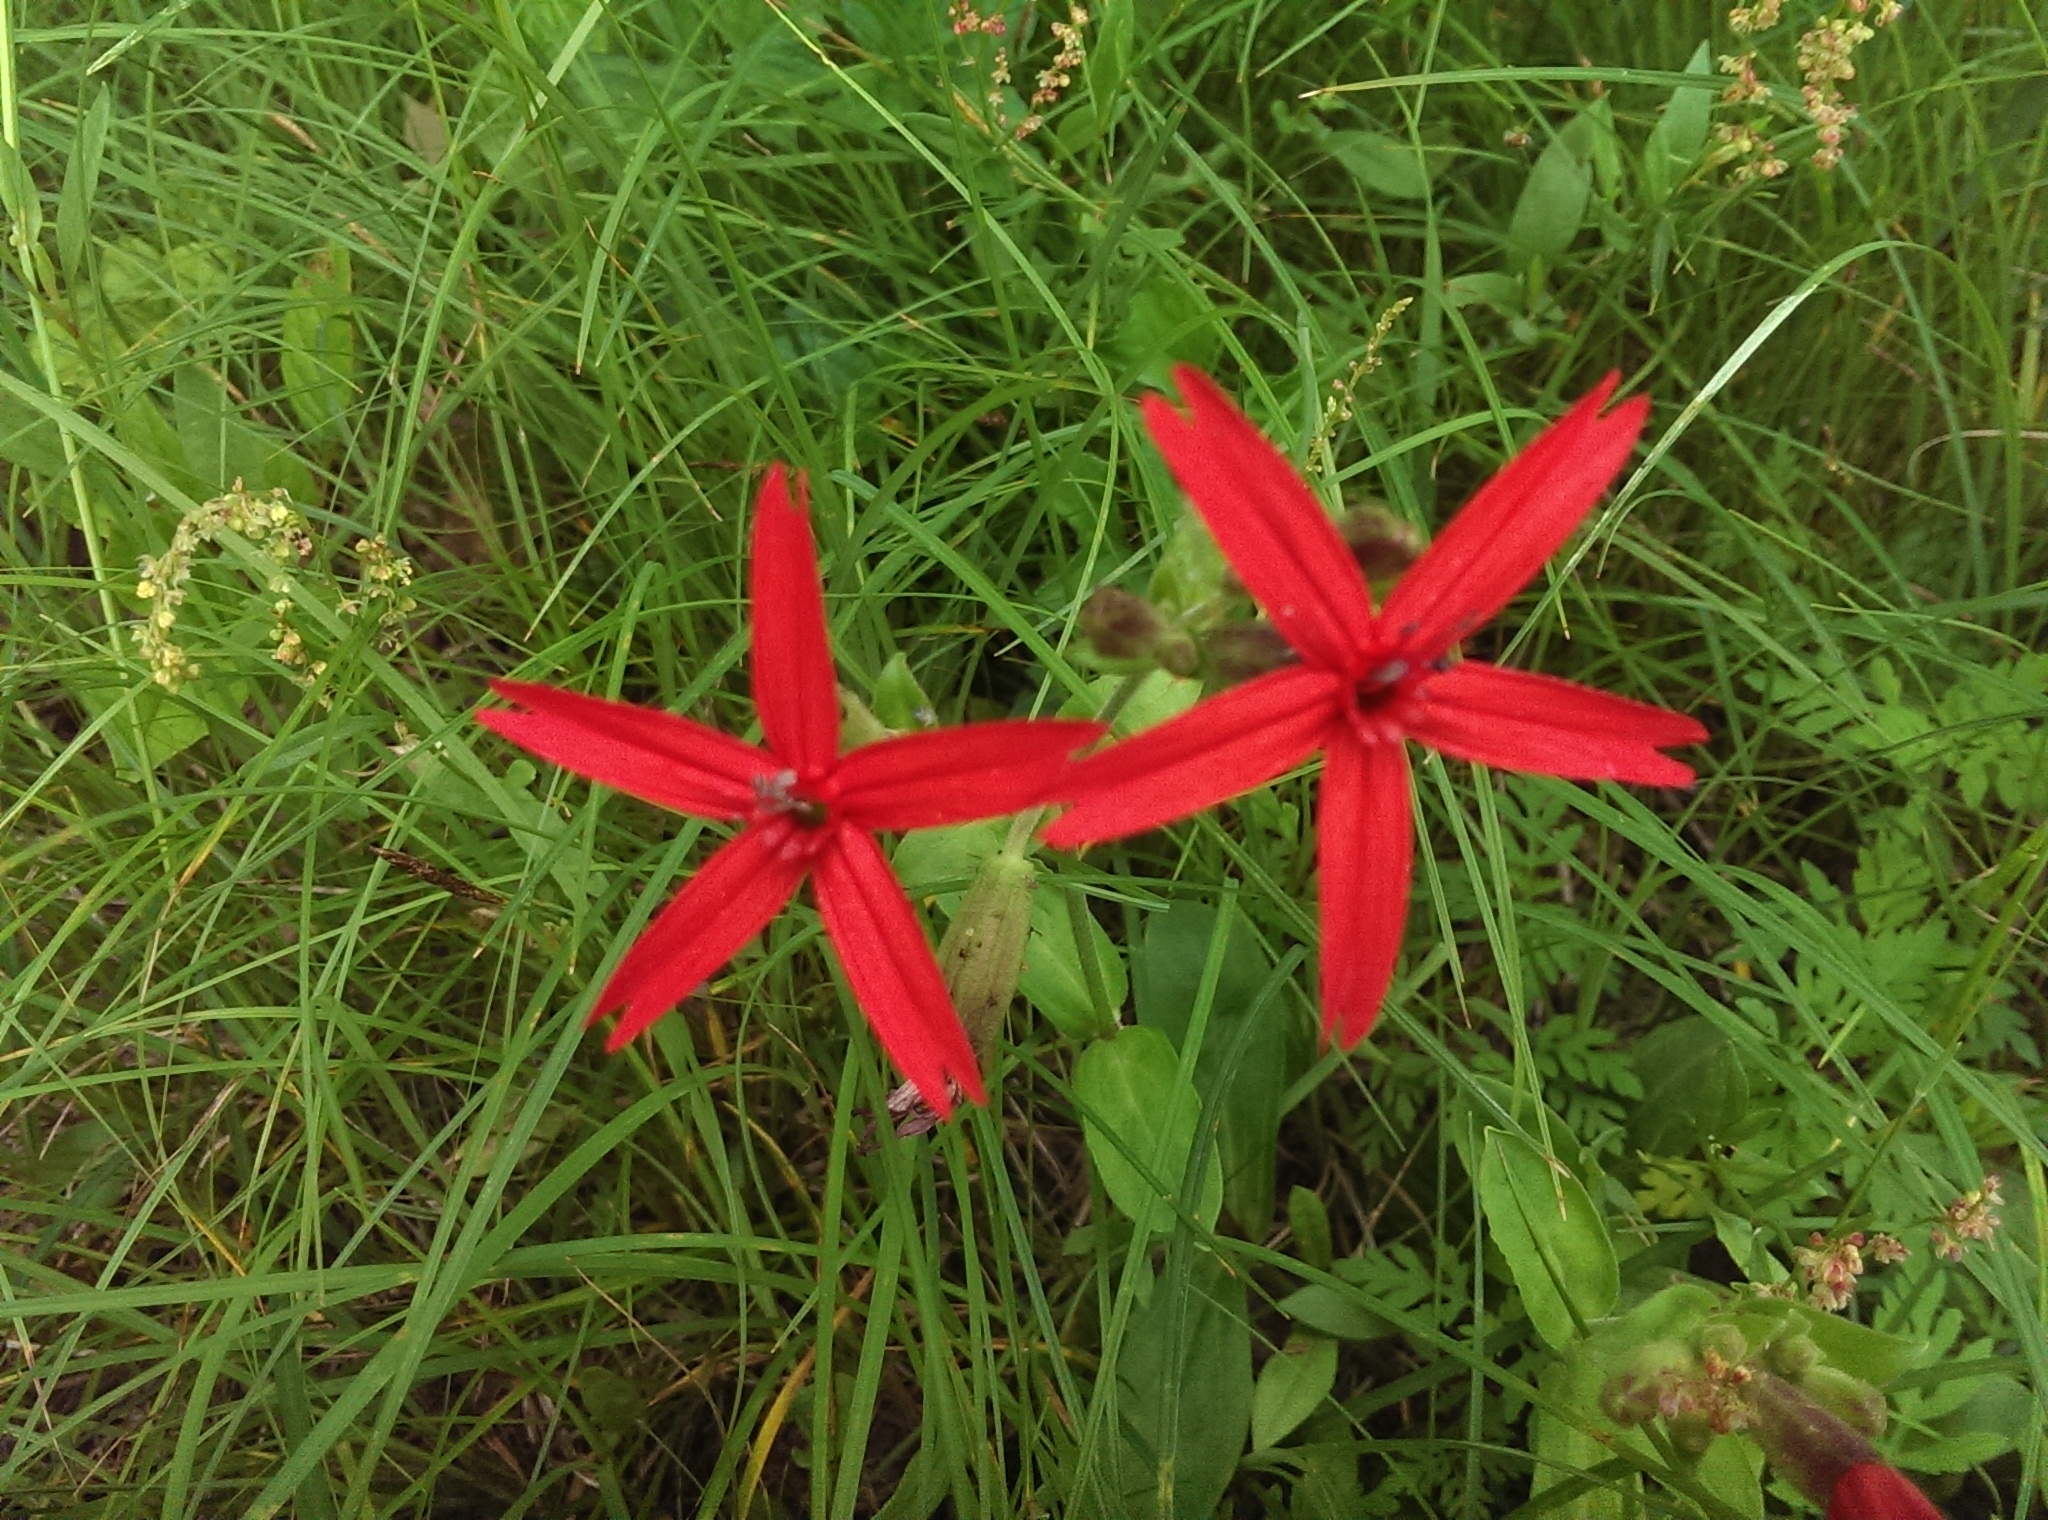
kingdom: Plantae
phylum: Tracheophyta
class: Magnoliopsida
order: Caryophyllales
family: Caryophyllaceae
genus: Silene
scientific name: Silene virginica
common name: Fire-pink
